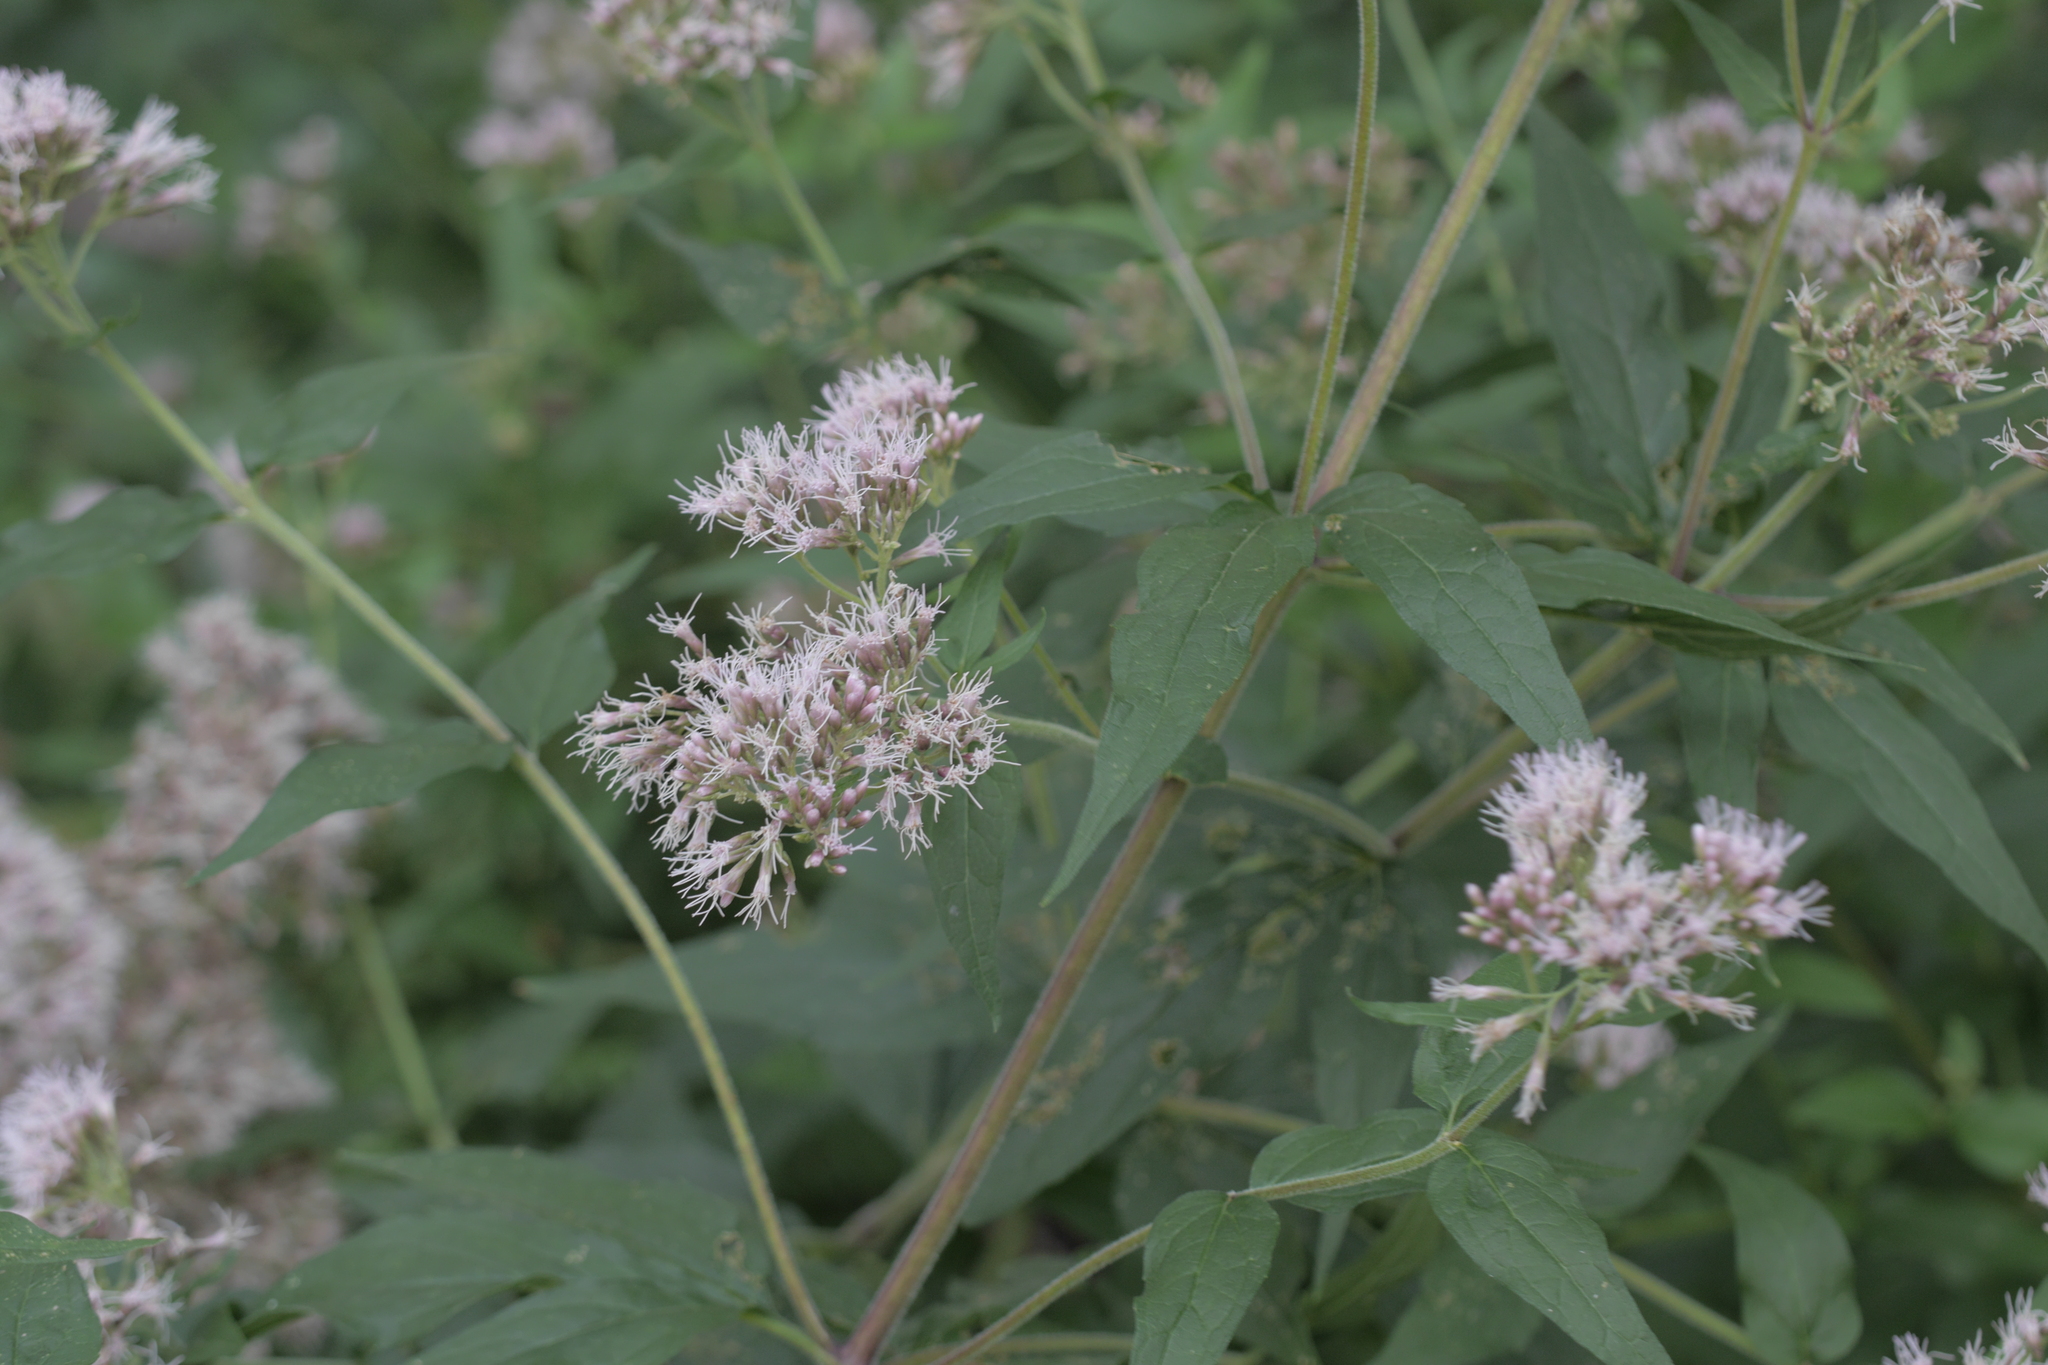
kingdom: Plantae
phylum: Tracheophyta
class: Magnoliopsida
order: Asterales
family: Asteraceae
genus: Eupatorium
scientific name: Eupatorium cannabinum
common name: Hemp-agrimony
